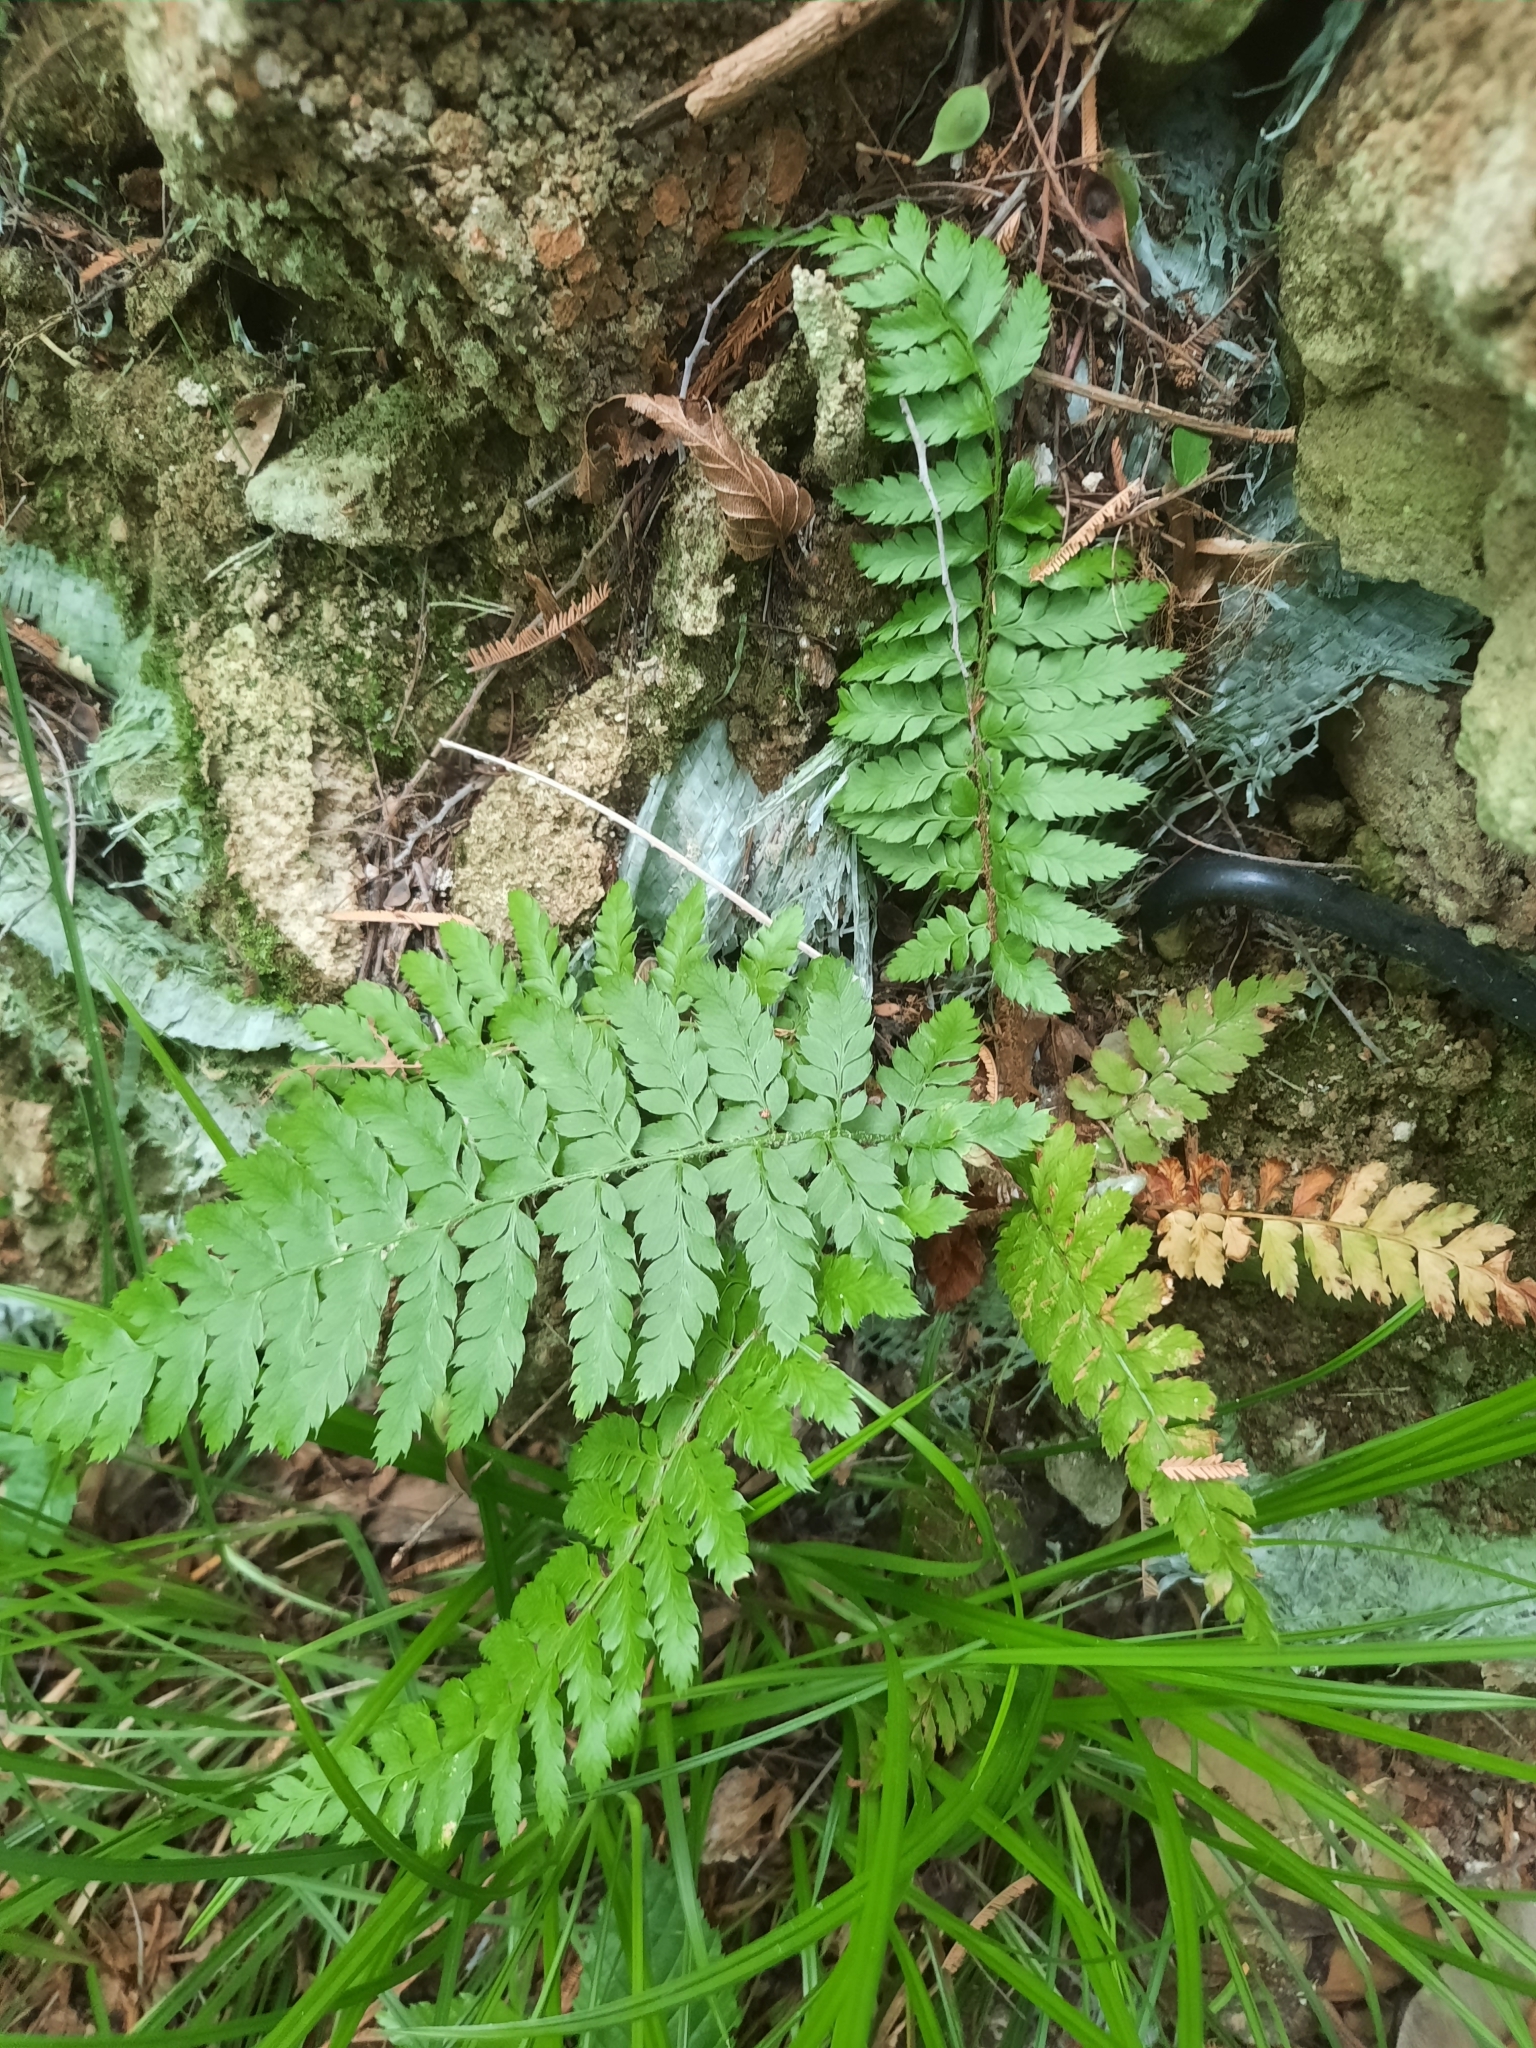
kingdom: Plantae
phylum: Tracheophyta
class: Polypodiopsida
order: Polypodiales
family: Dryopteridaceae
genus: Polystichum
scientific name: Polystichum setiferum
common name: Soft shield-fern
